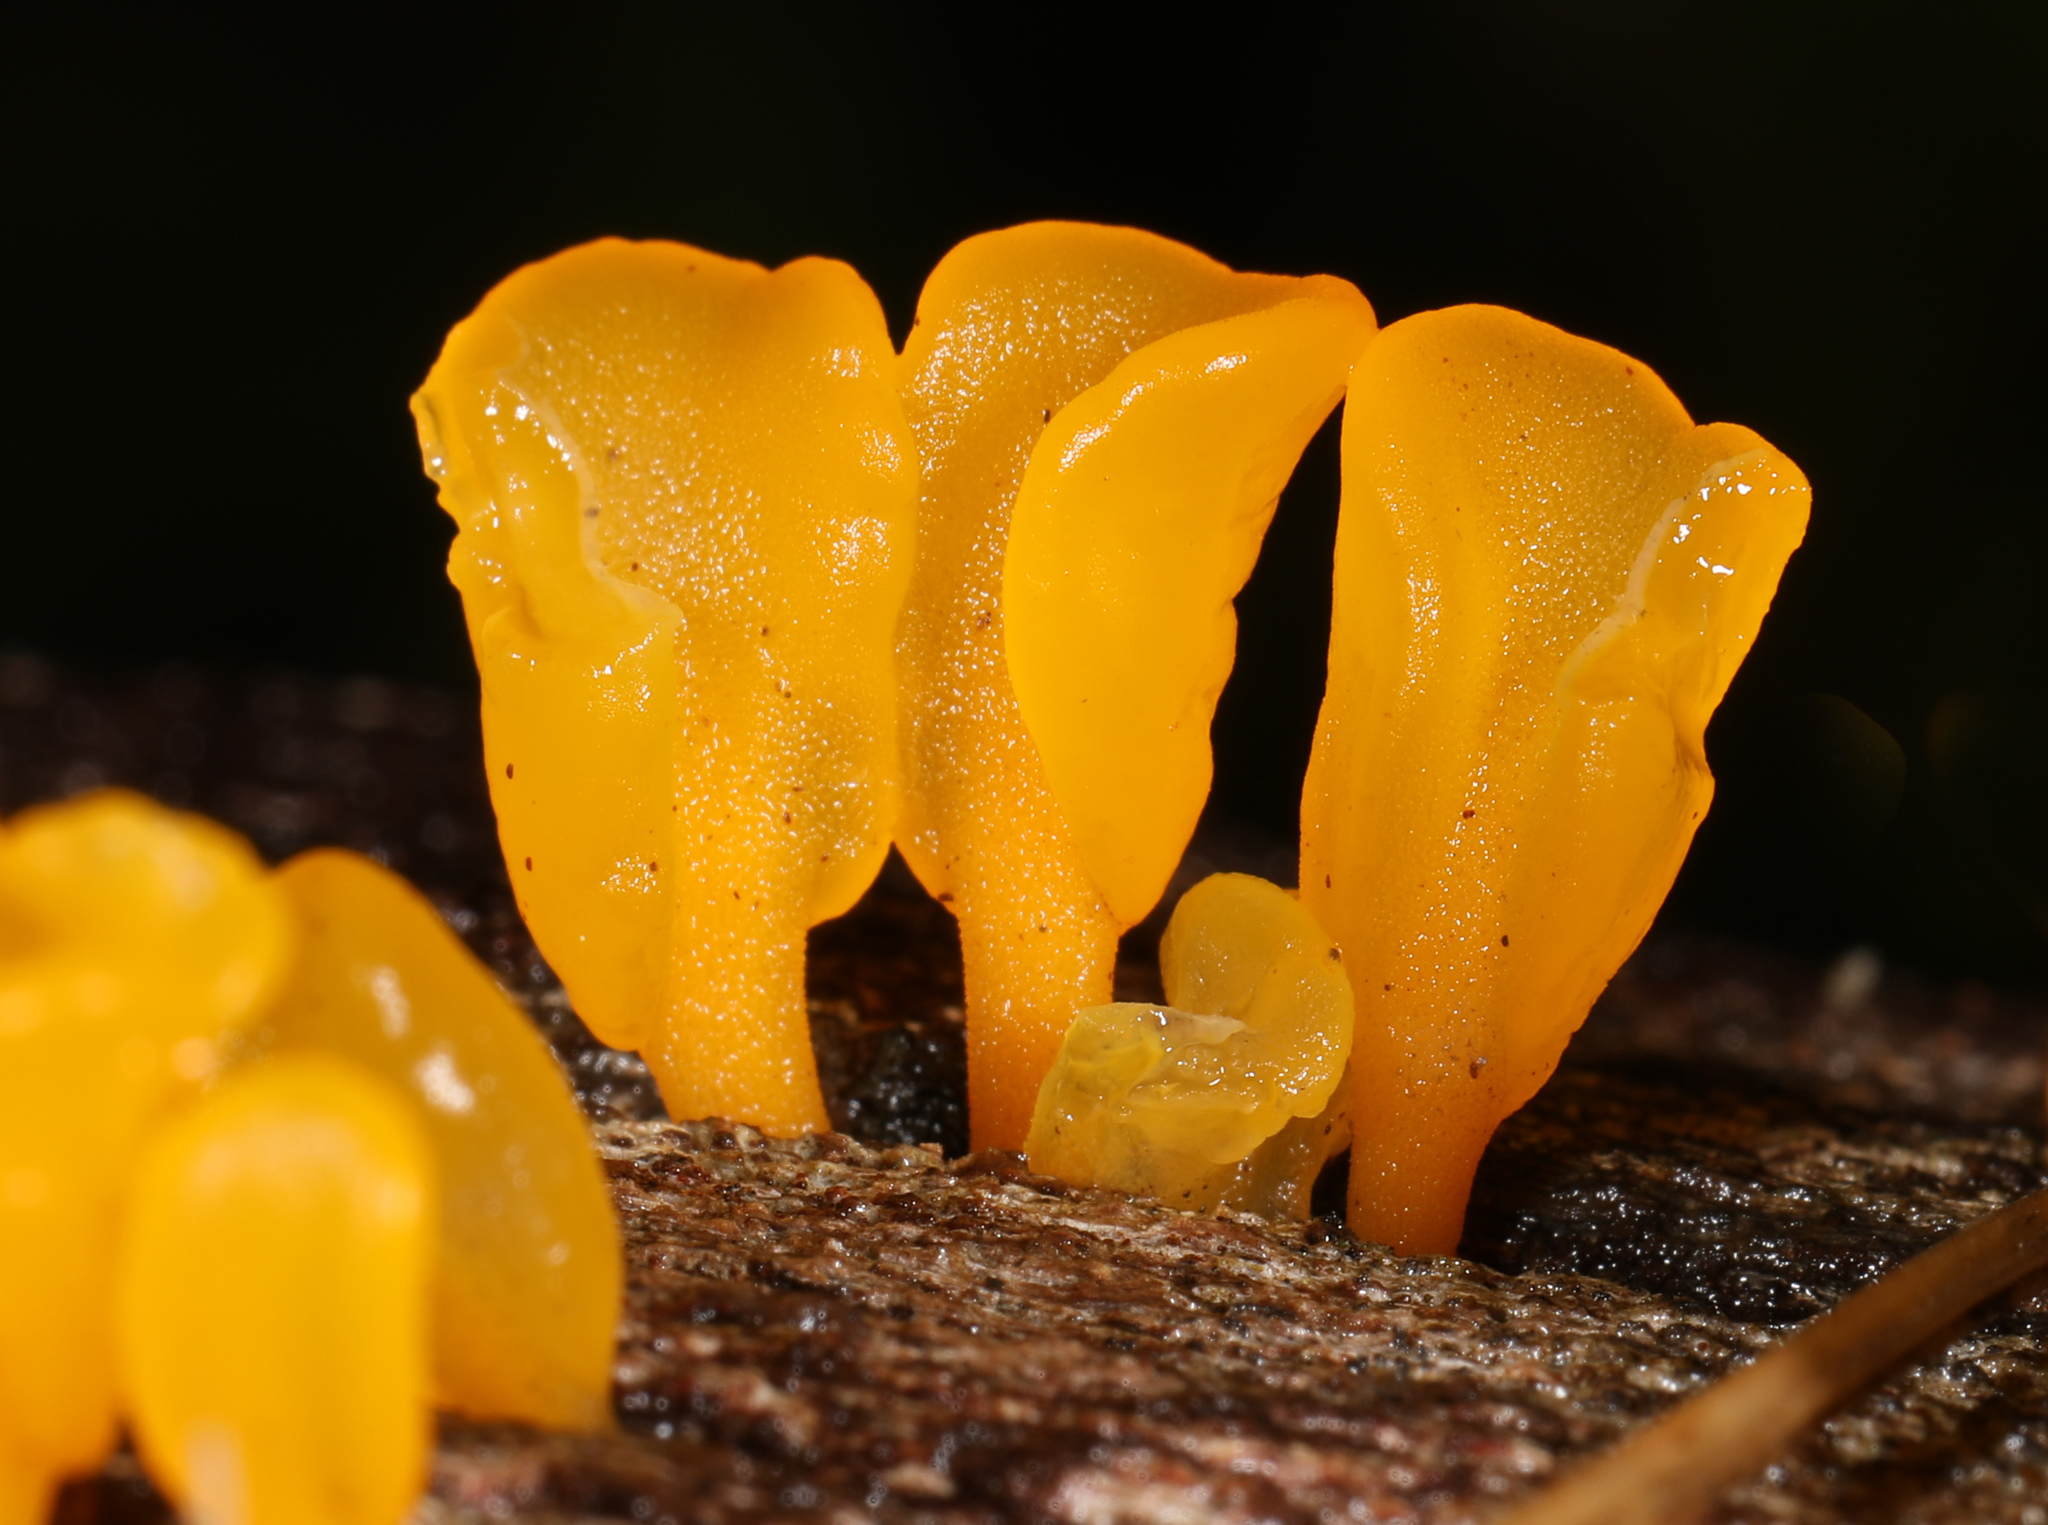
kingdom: Fungi
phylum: Basidiomycota
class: Dacrymycetes
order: Dacrymycetales
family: Dacrymycetaceae
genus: Dacrymyces
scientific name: Dacrymyces spathularius
